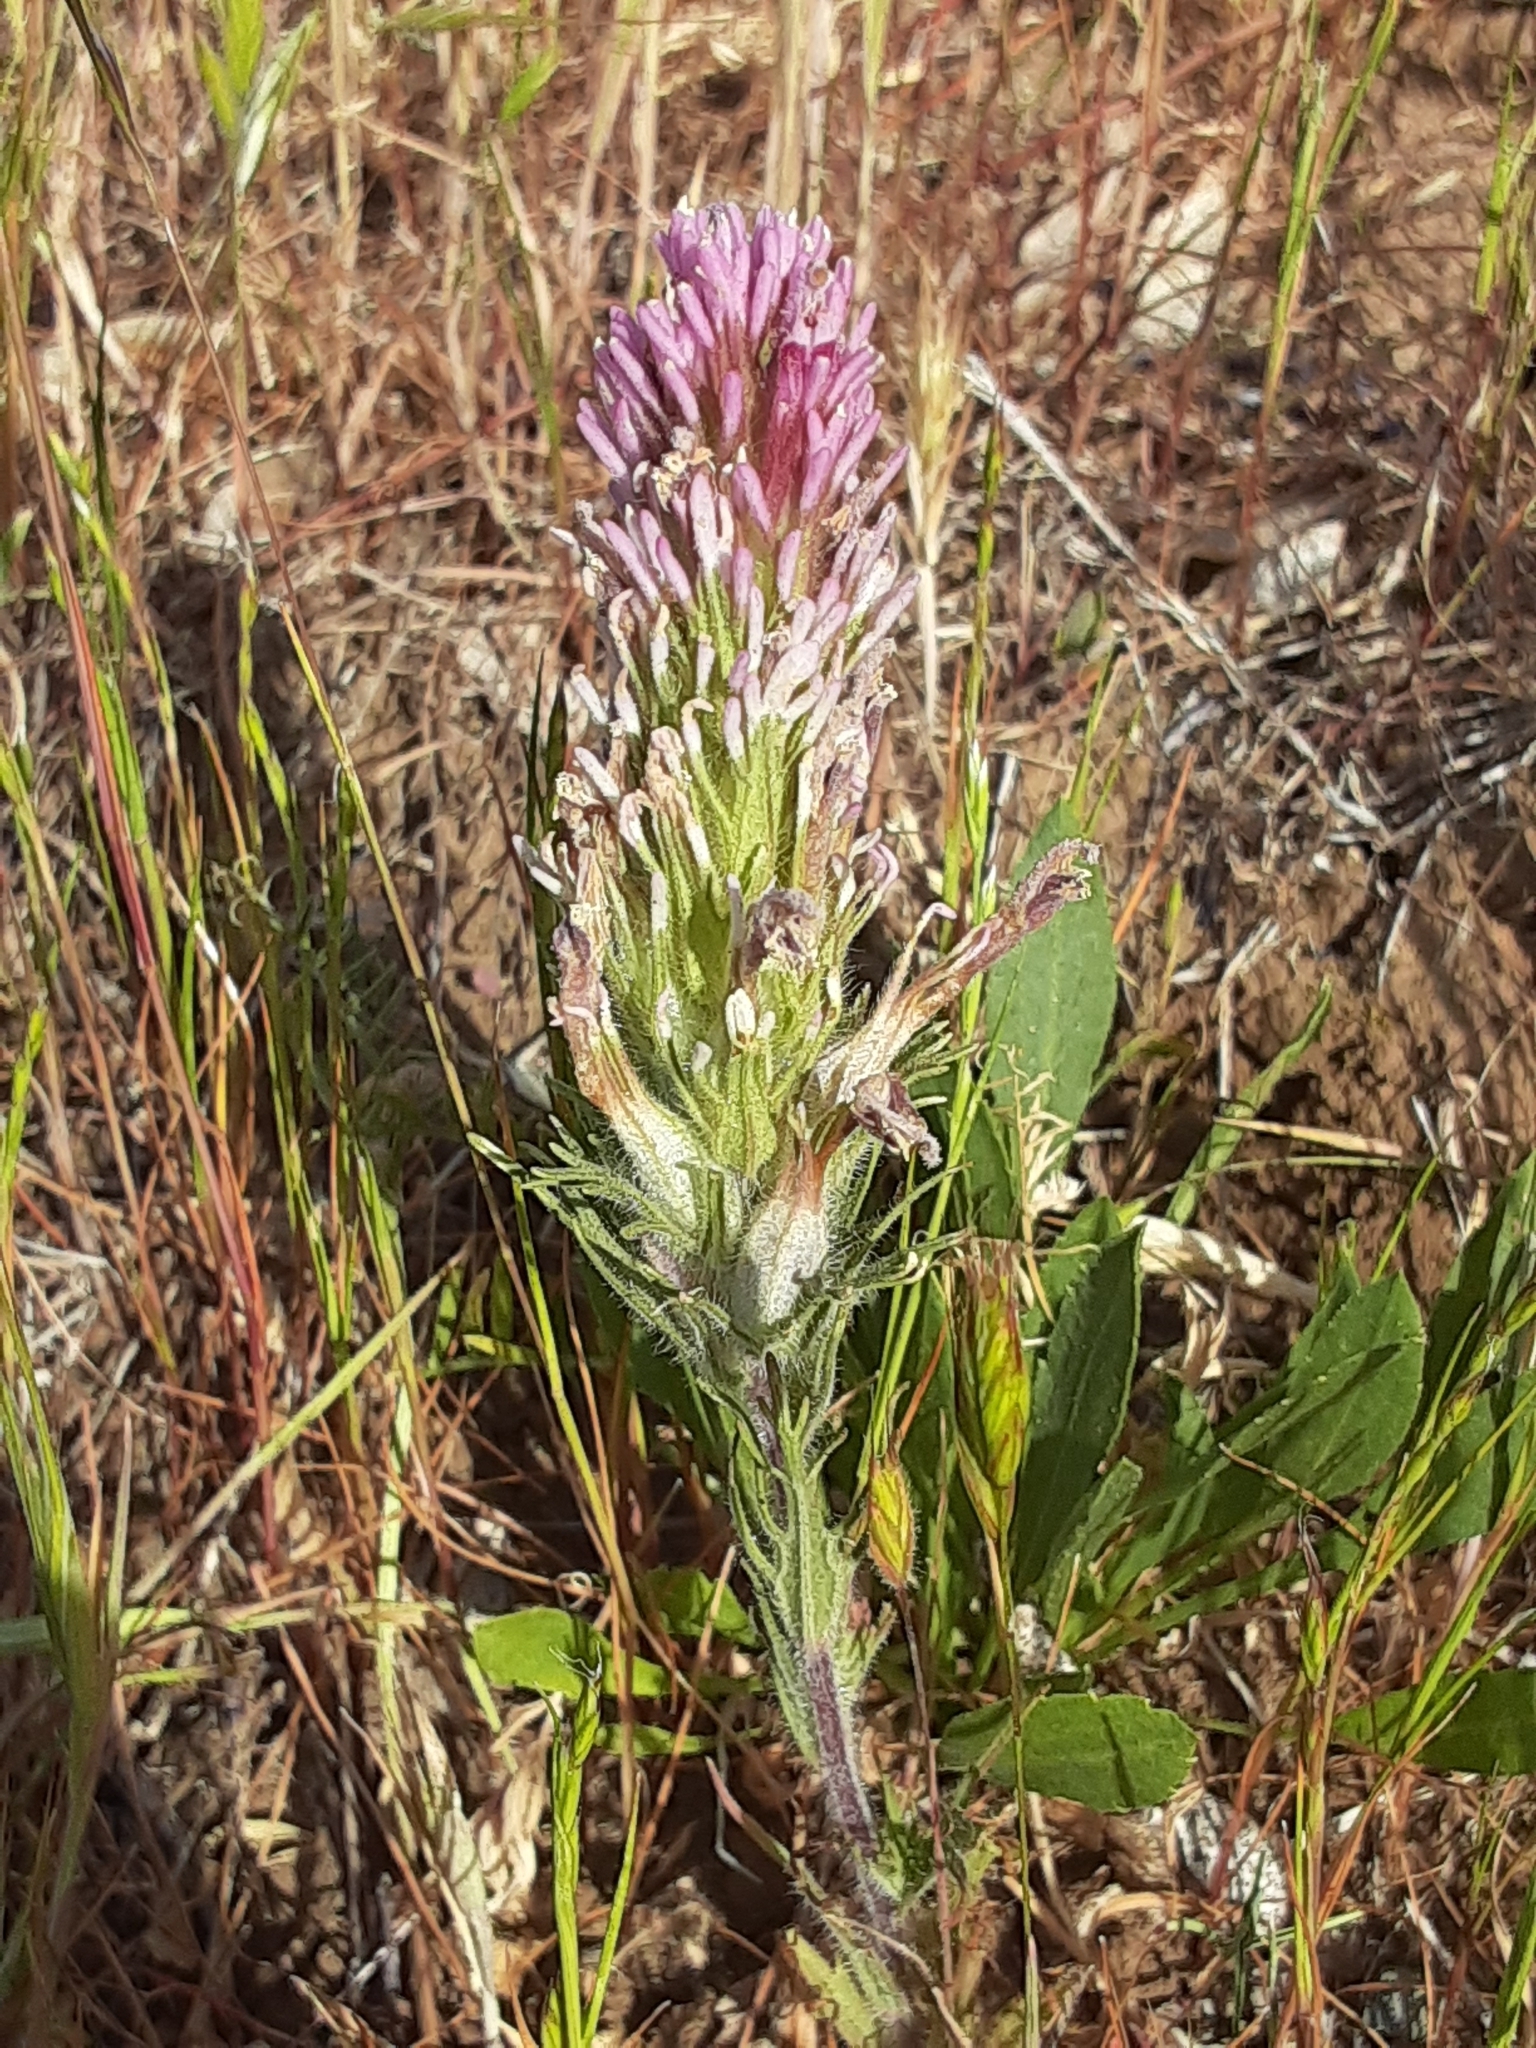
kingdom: Plantae
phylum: Tracheophyta
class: Magnoliopsida
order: Lamiales
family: Orobanchaceae
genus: Castilleja
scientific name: Castilleja exserta
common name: Purple owl-clover
